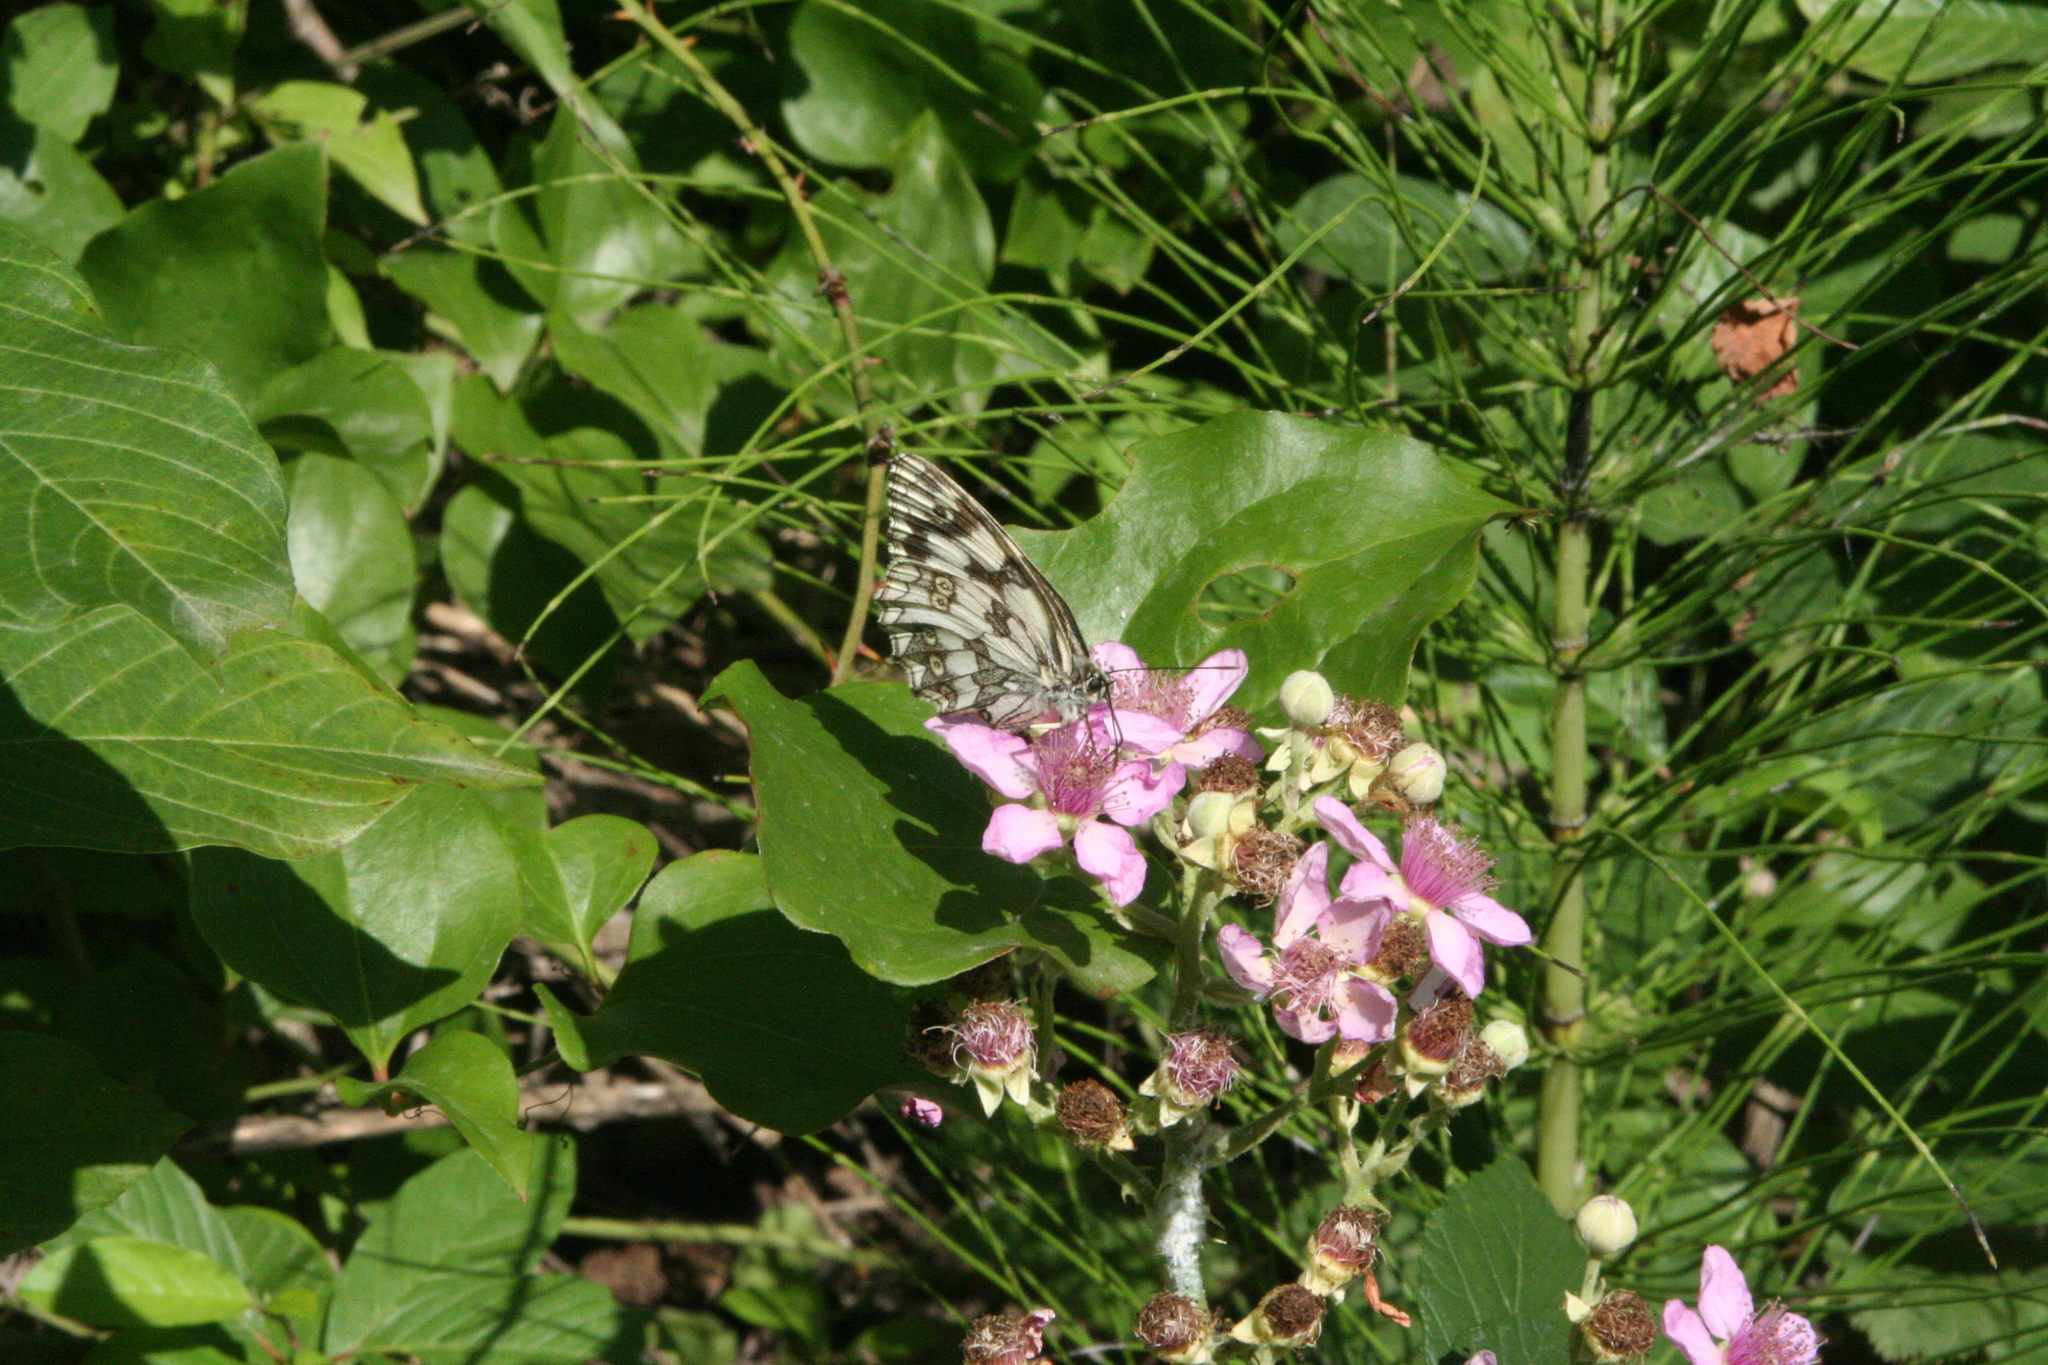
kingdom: Plantae
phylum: Tracheophyta
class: Magnoliopsida
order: Rosales
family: Rosaceae
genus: Rubus
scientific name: Rubus sanctus
